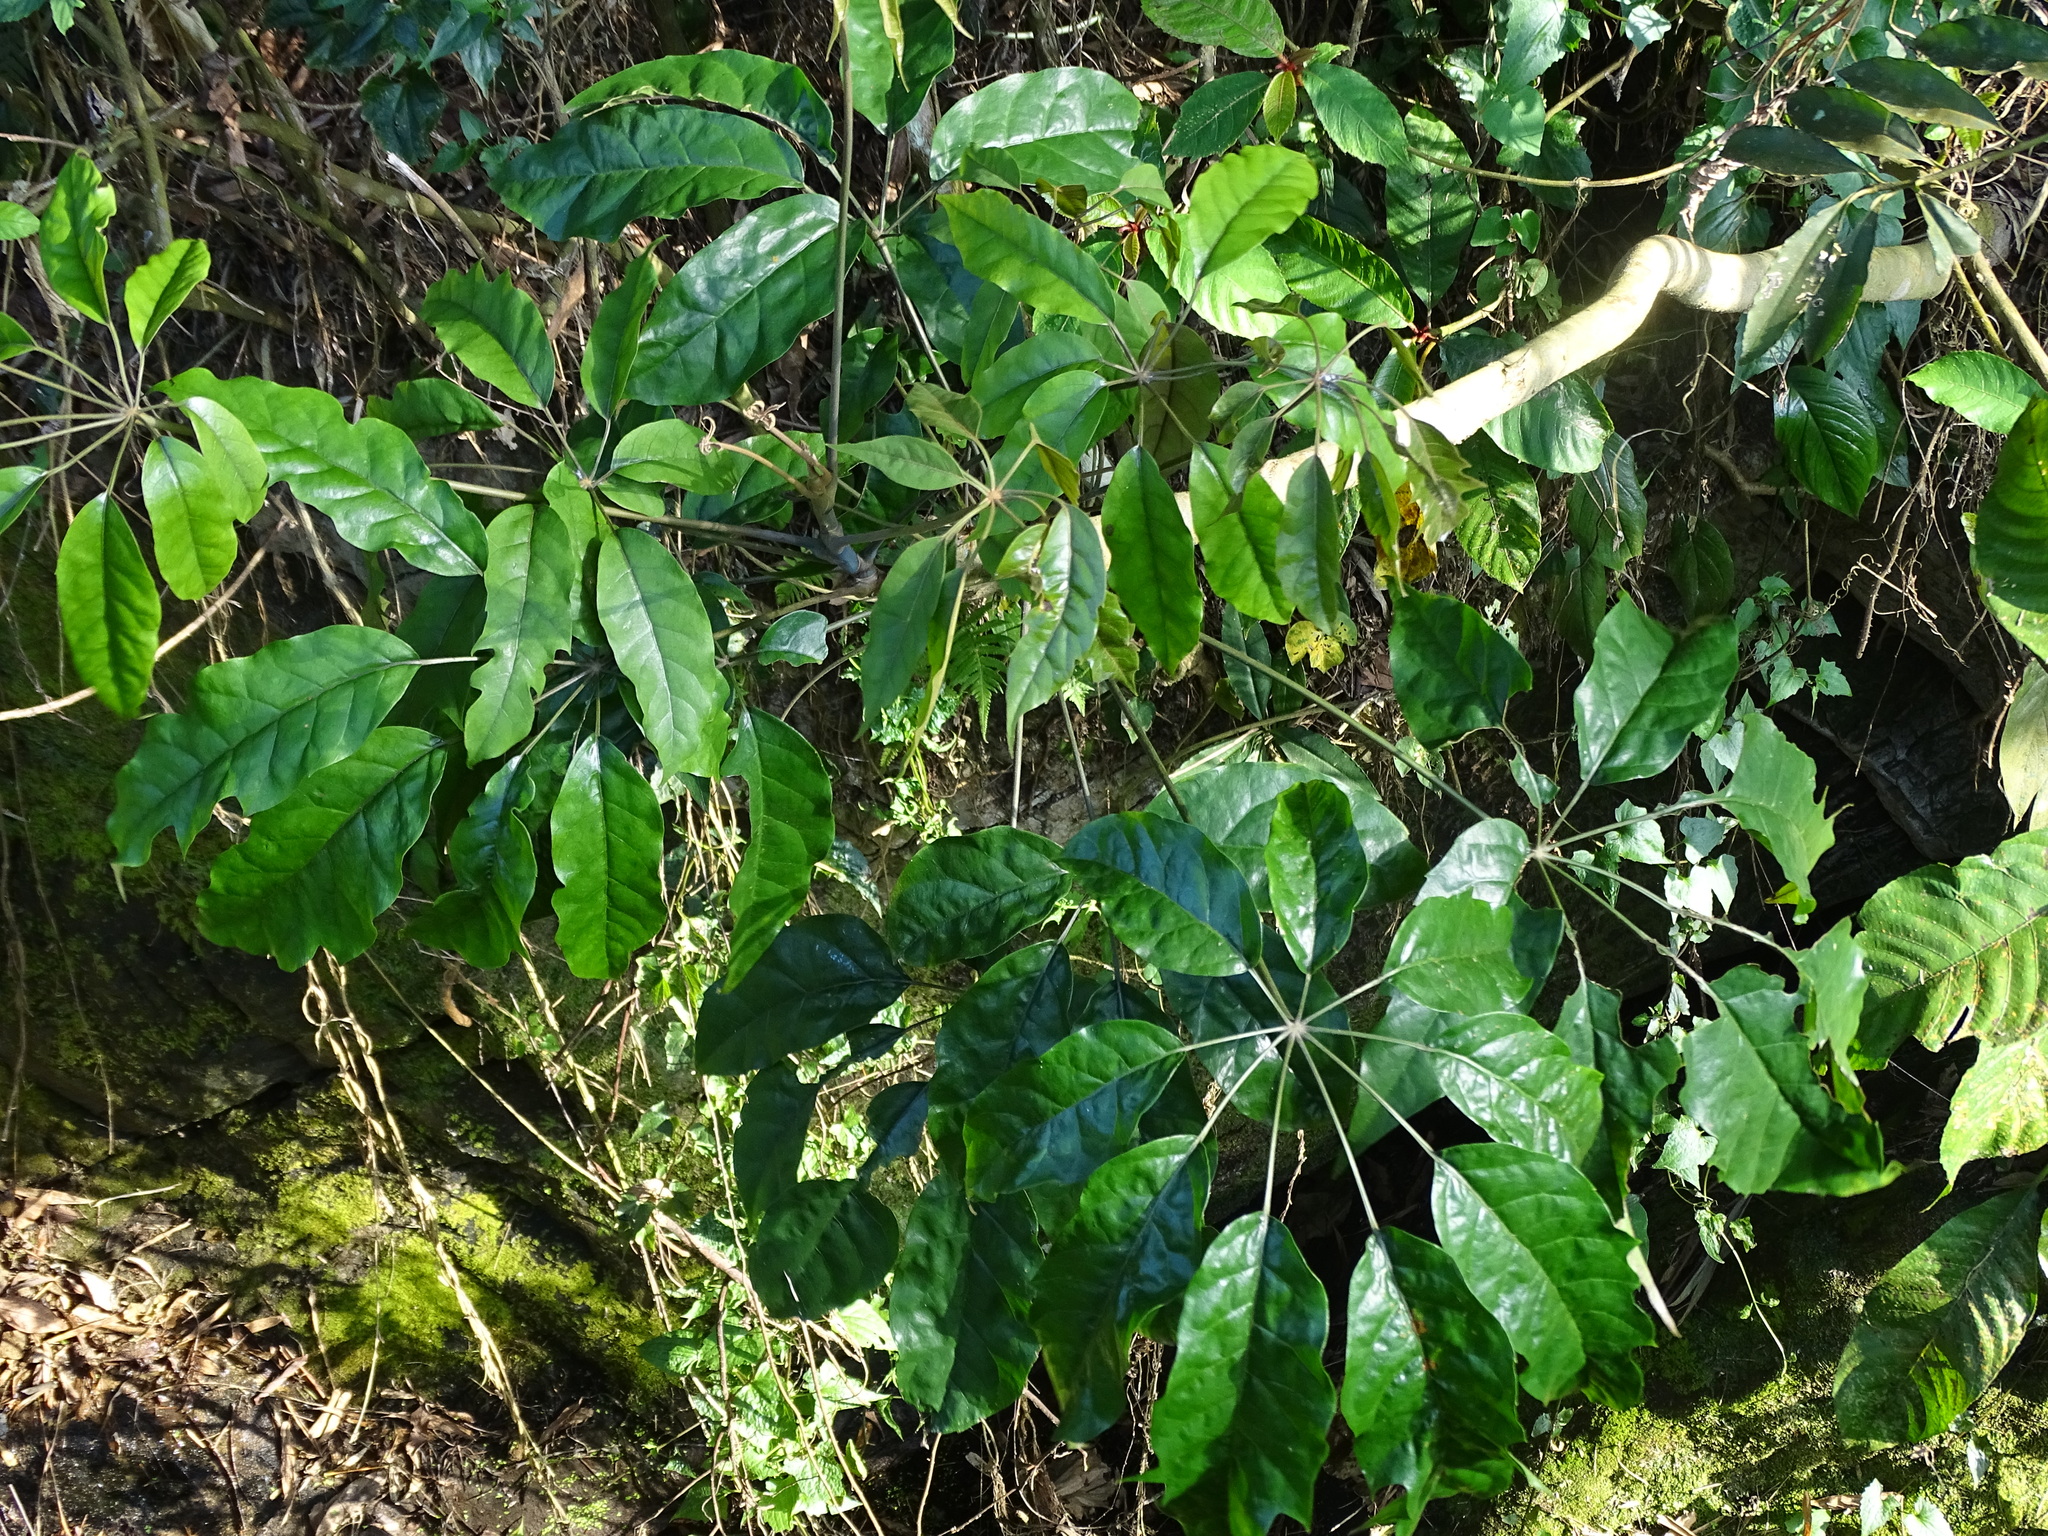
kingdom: Plantae
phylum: Tracheophyta
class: Magnoliopsida
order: Apiales
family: Araliaceae
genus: Heptapleurum
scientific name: Heptapleurum heptaphyllum
